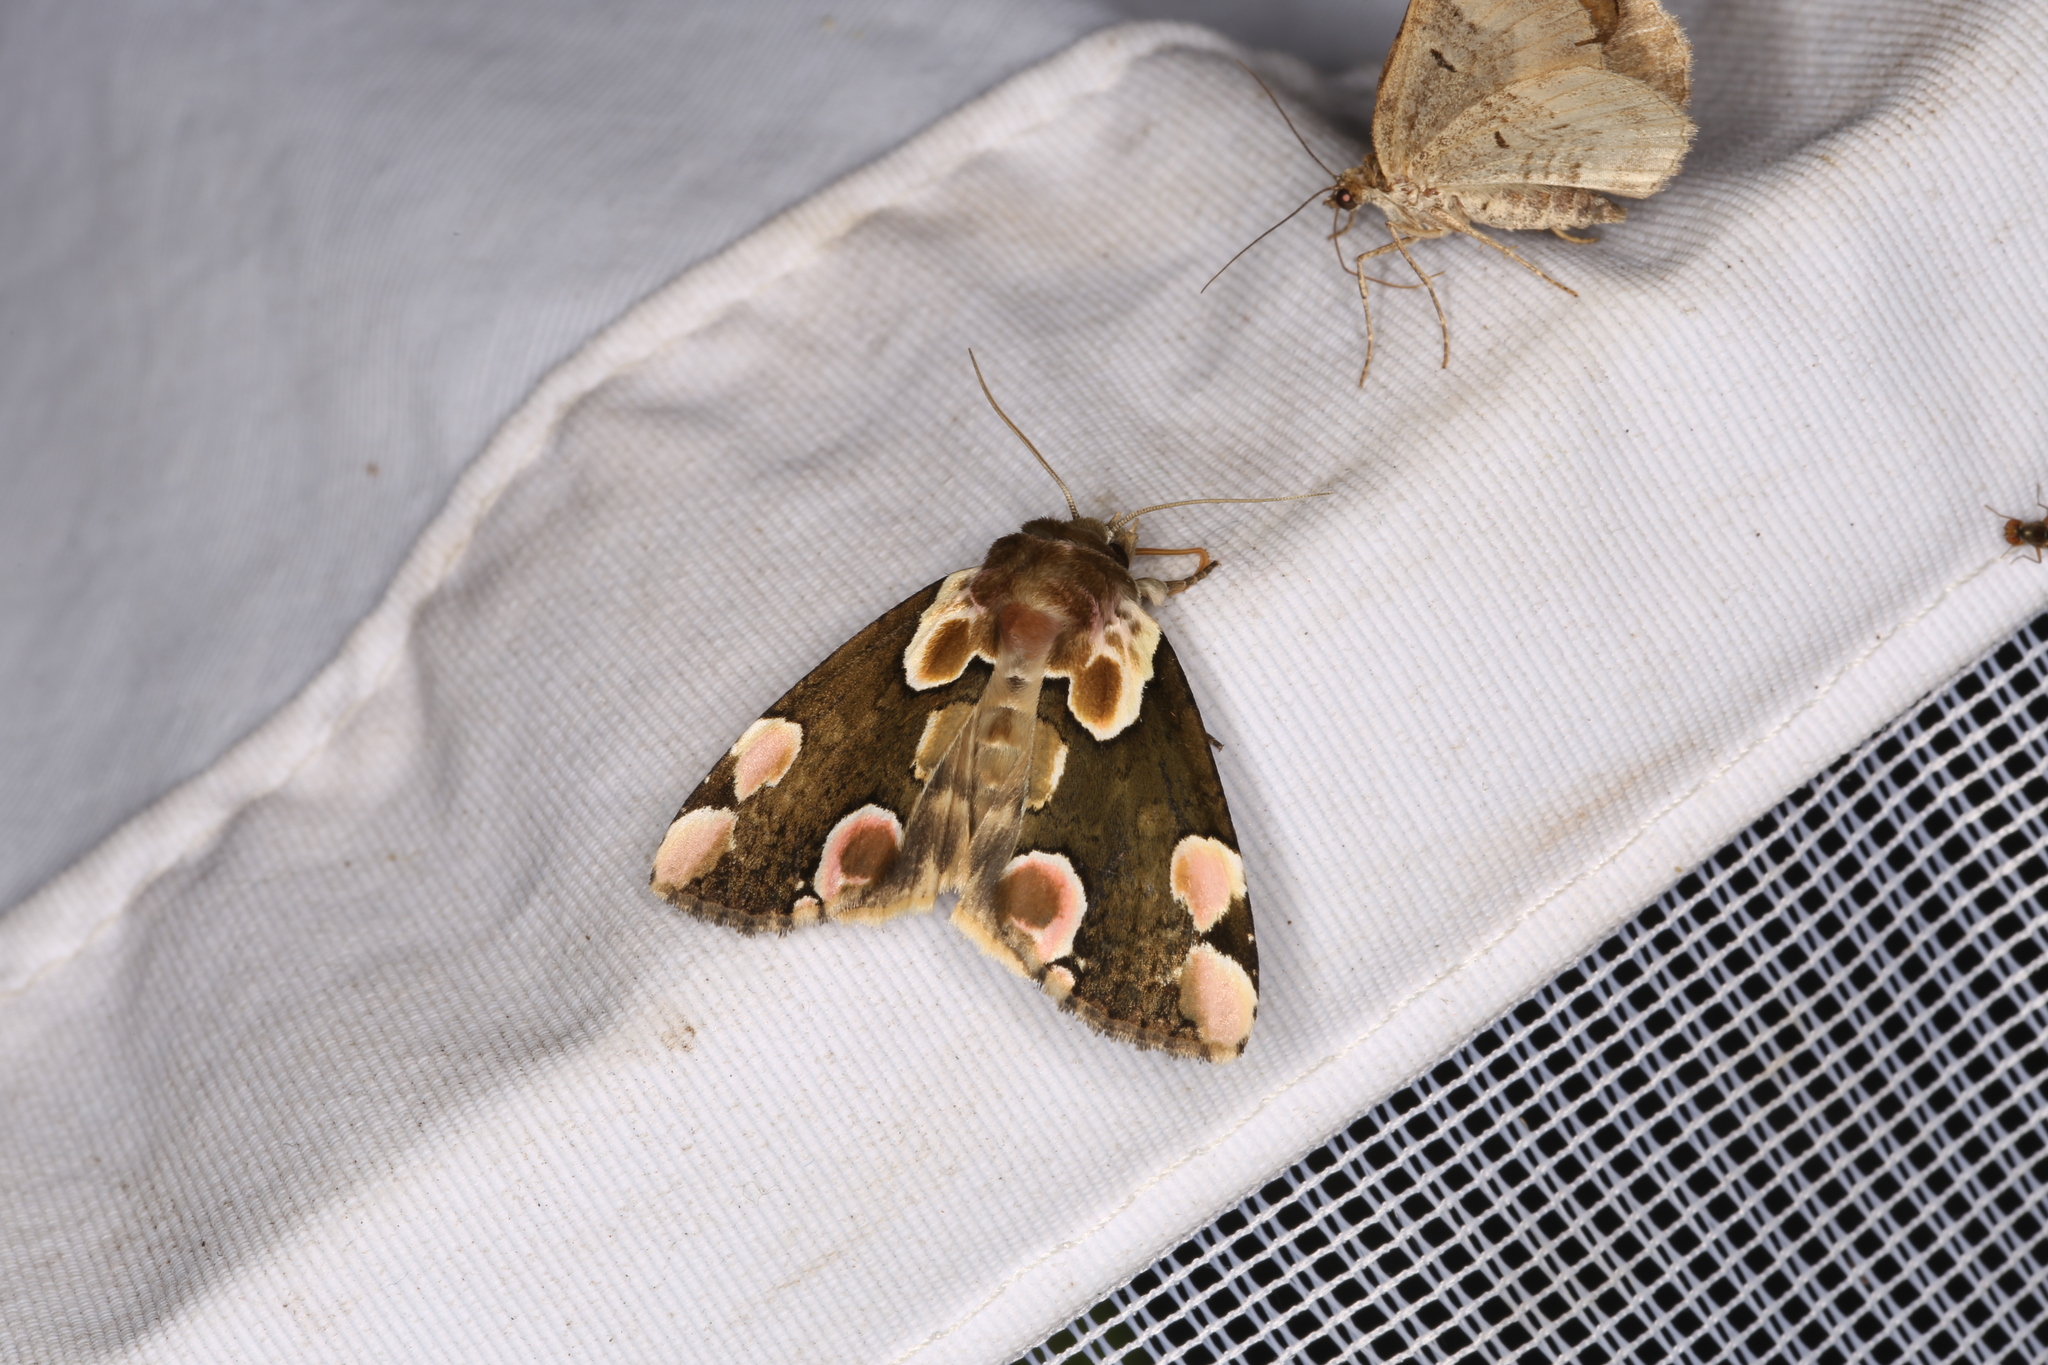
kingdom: Animalia
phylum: Arthropoda
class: Insecta
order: Lepidoptera
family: Drepanidae
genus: Thyatira
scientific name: Thyatira batis
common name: Peach blossom
